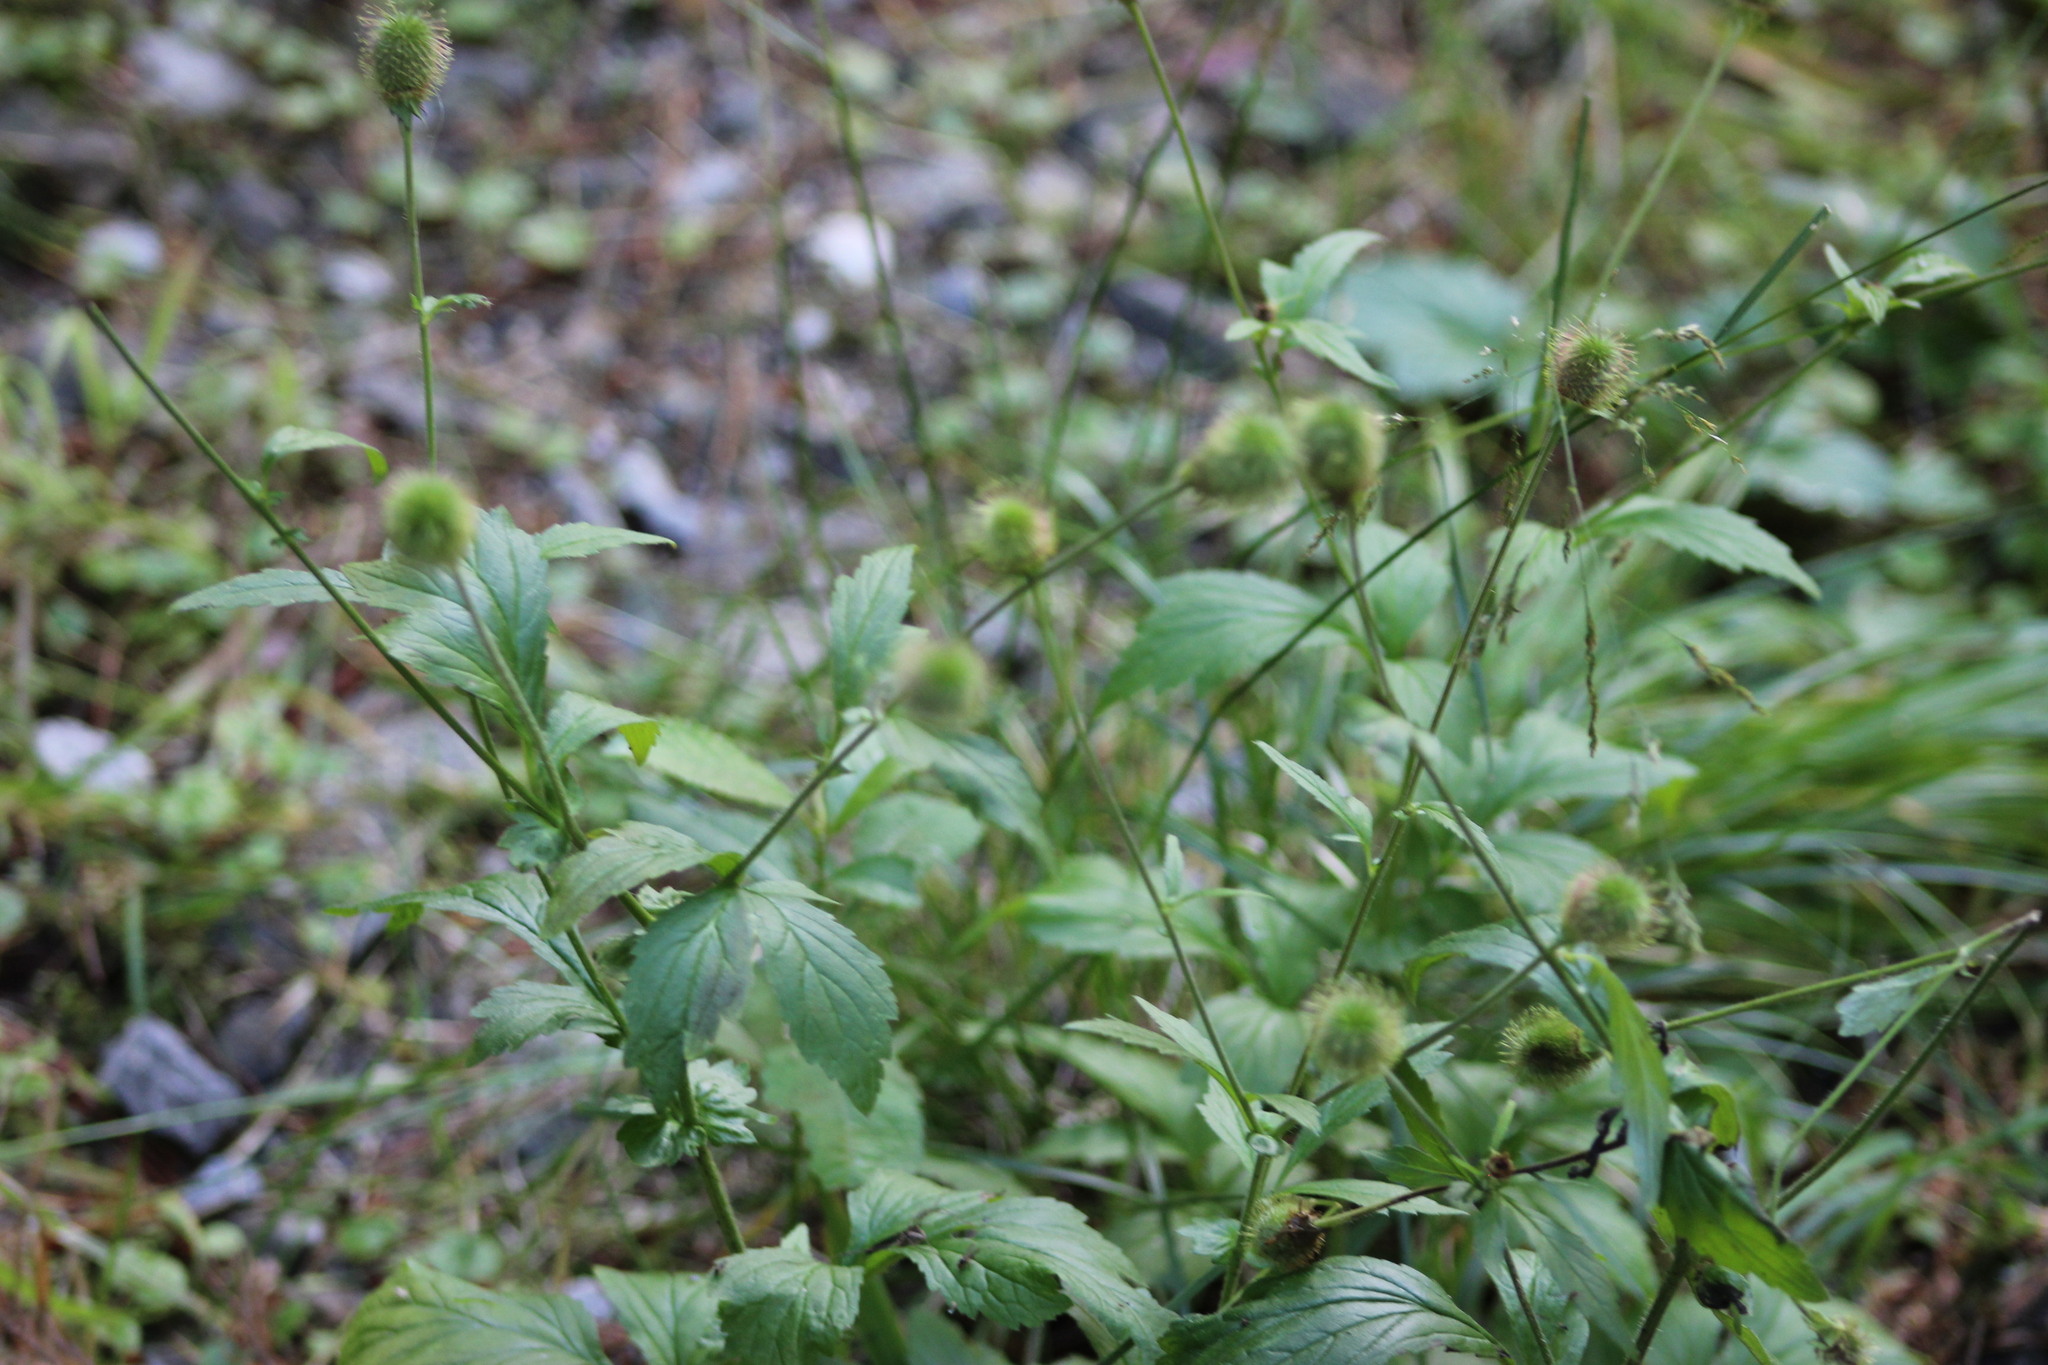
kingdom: Plantae
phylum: Tracheophyta
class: Magnoliopsida
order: Rosales
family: Rosaceae
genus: Geum
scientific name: Geum aleppicum
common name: Yellow avens
